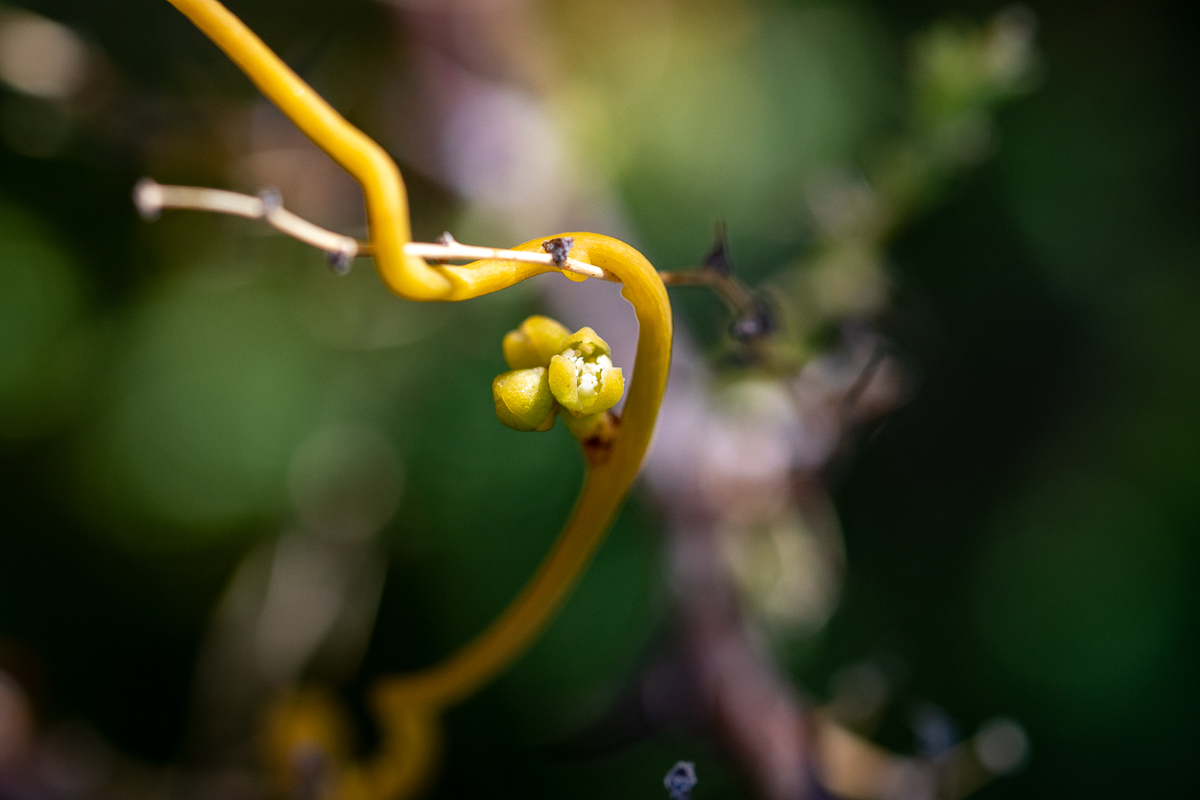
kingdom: Plantae
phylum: Tracheophyta
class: Magnoliopsida
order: Laurales
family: Lauraceae
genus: Cassytha
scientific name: Cassytha ciliolata
